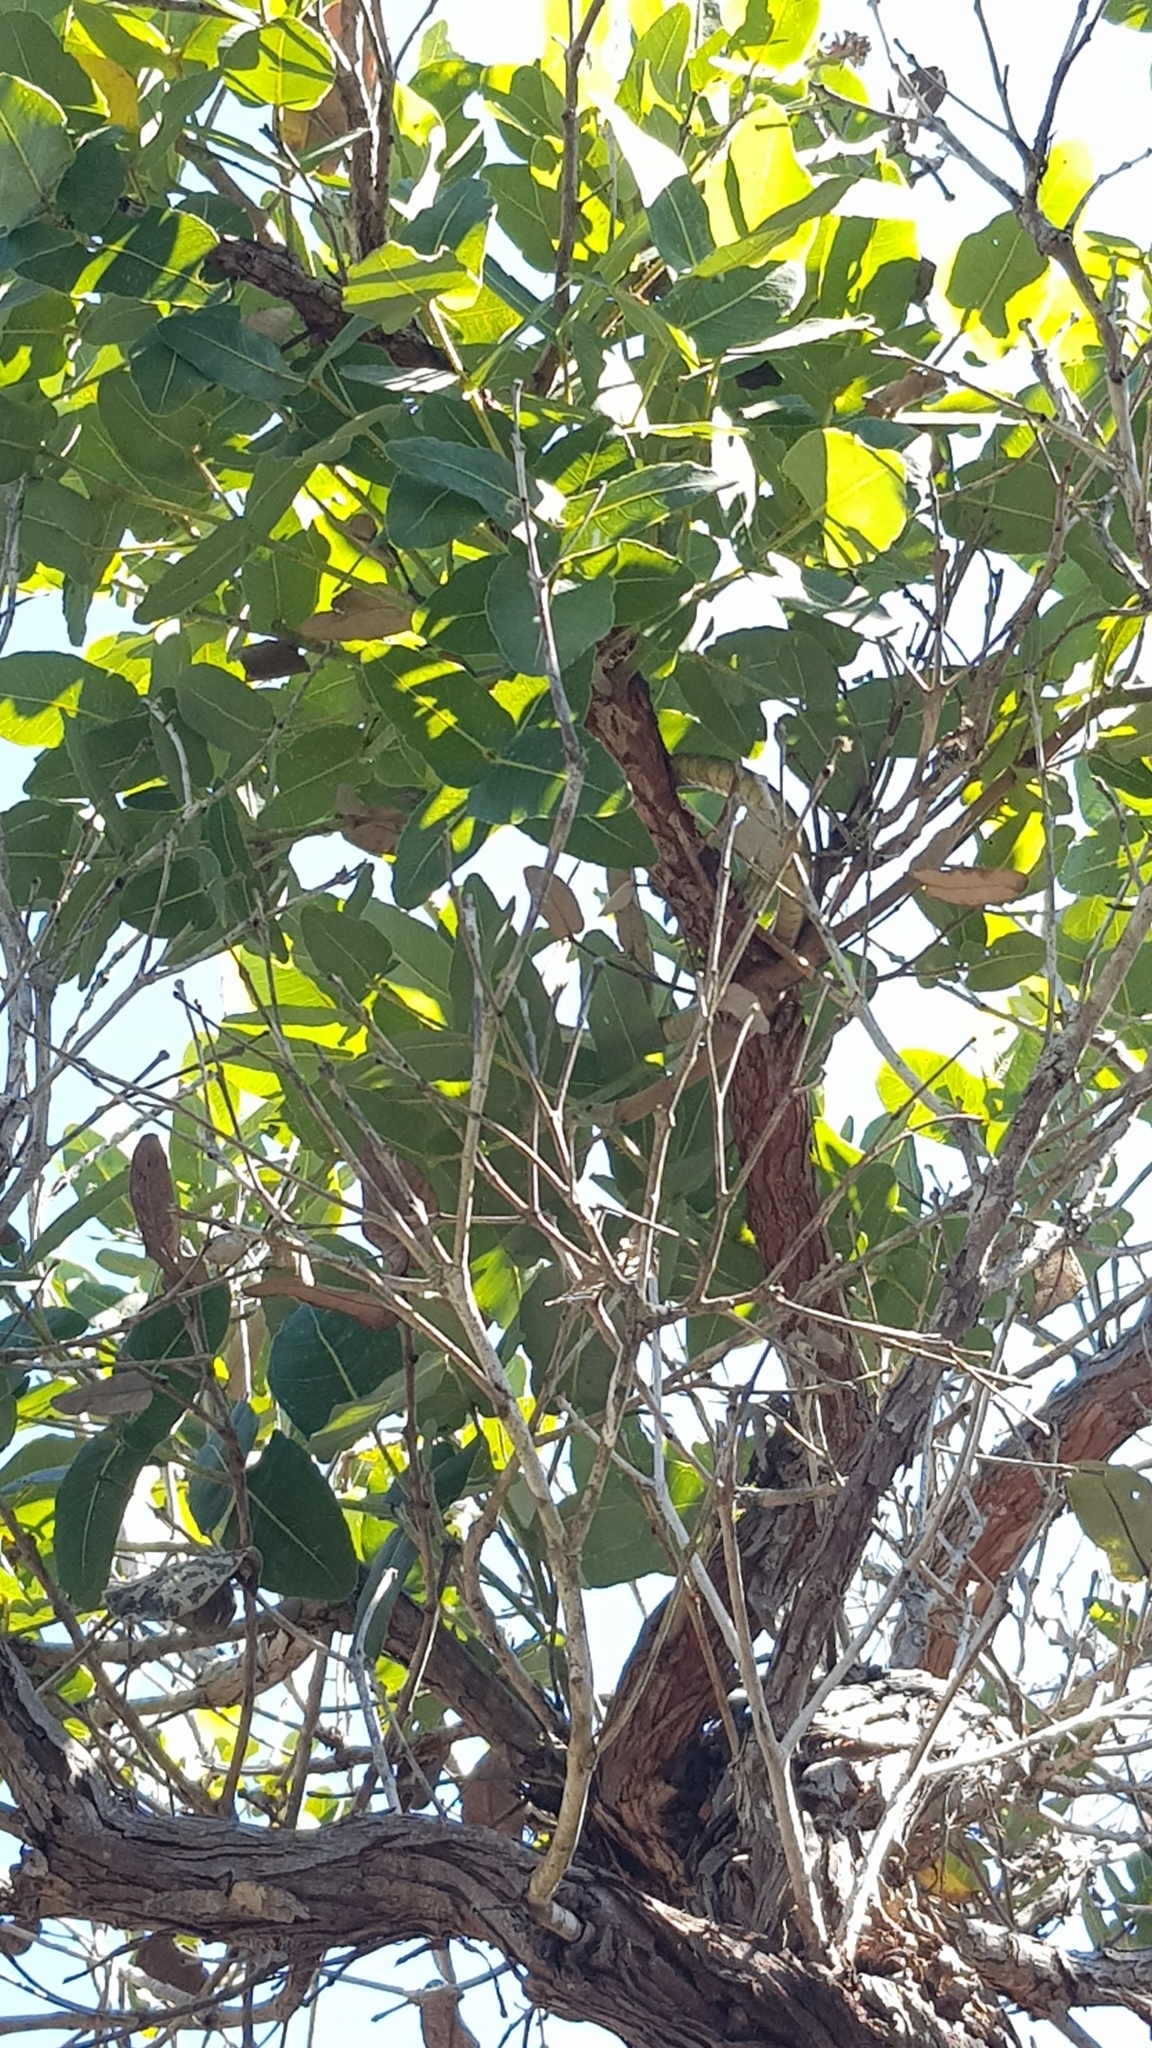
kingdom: Animalia
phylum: Chordata
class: Squamata
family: Colubridae
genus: Dendrelaphis
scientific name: Dendrelaphis punctulatus
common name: Common tree snake
